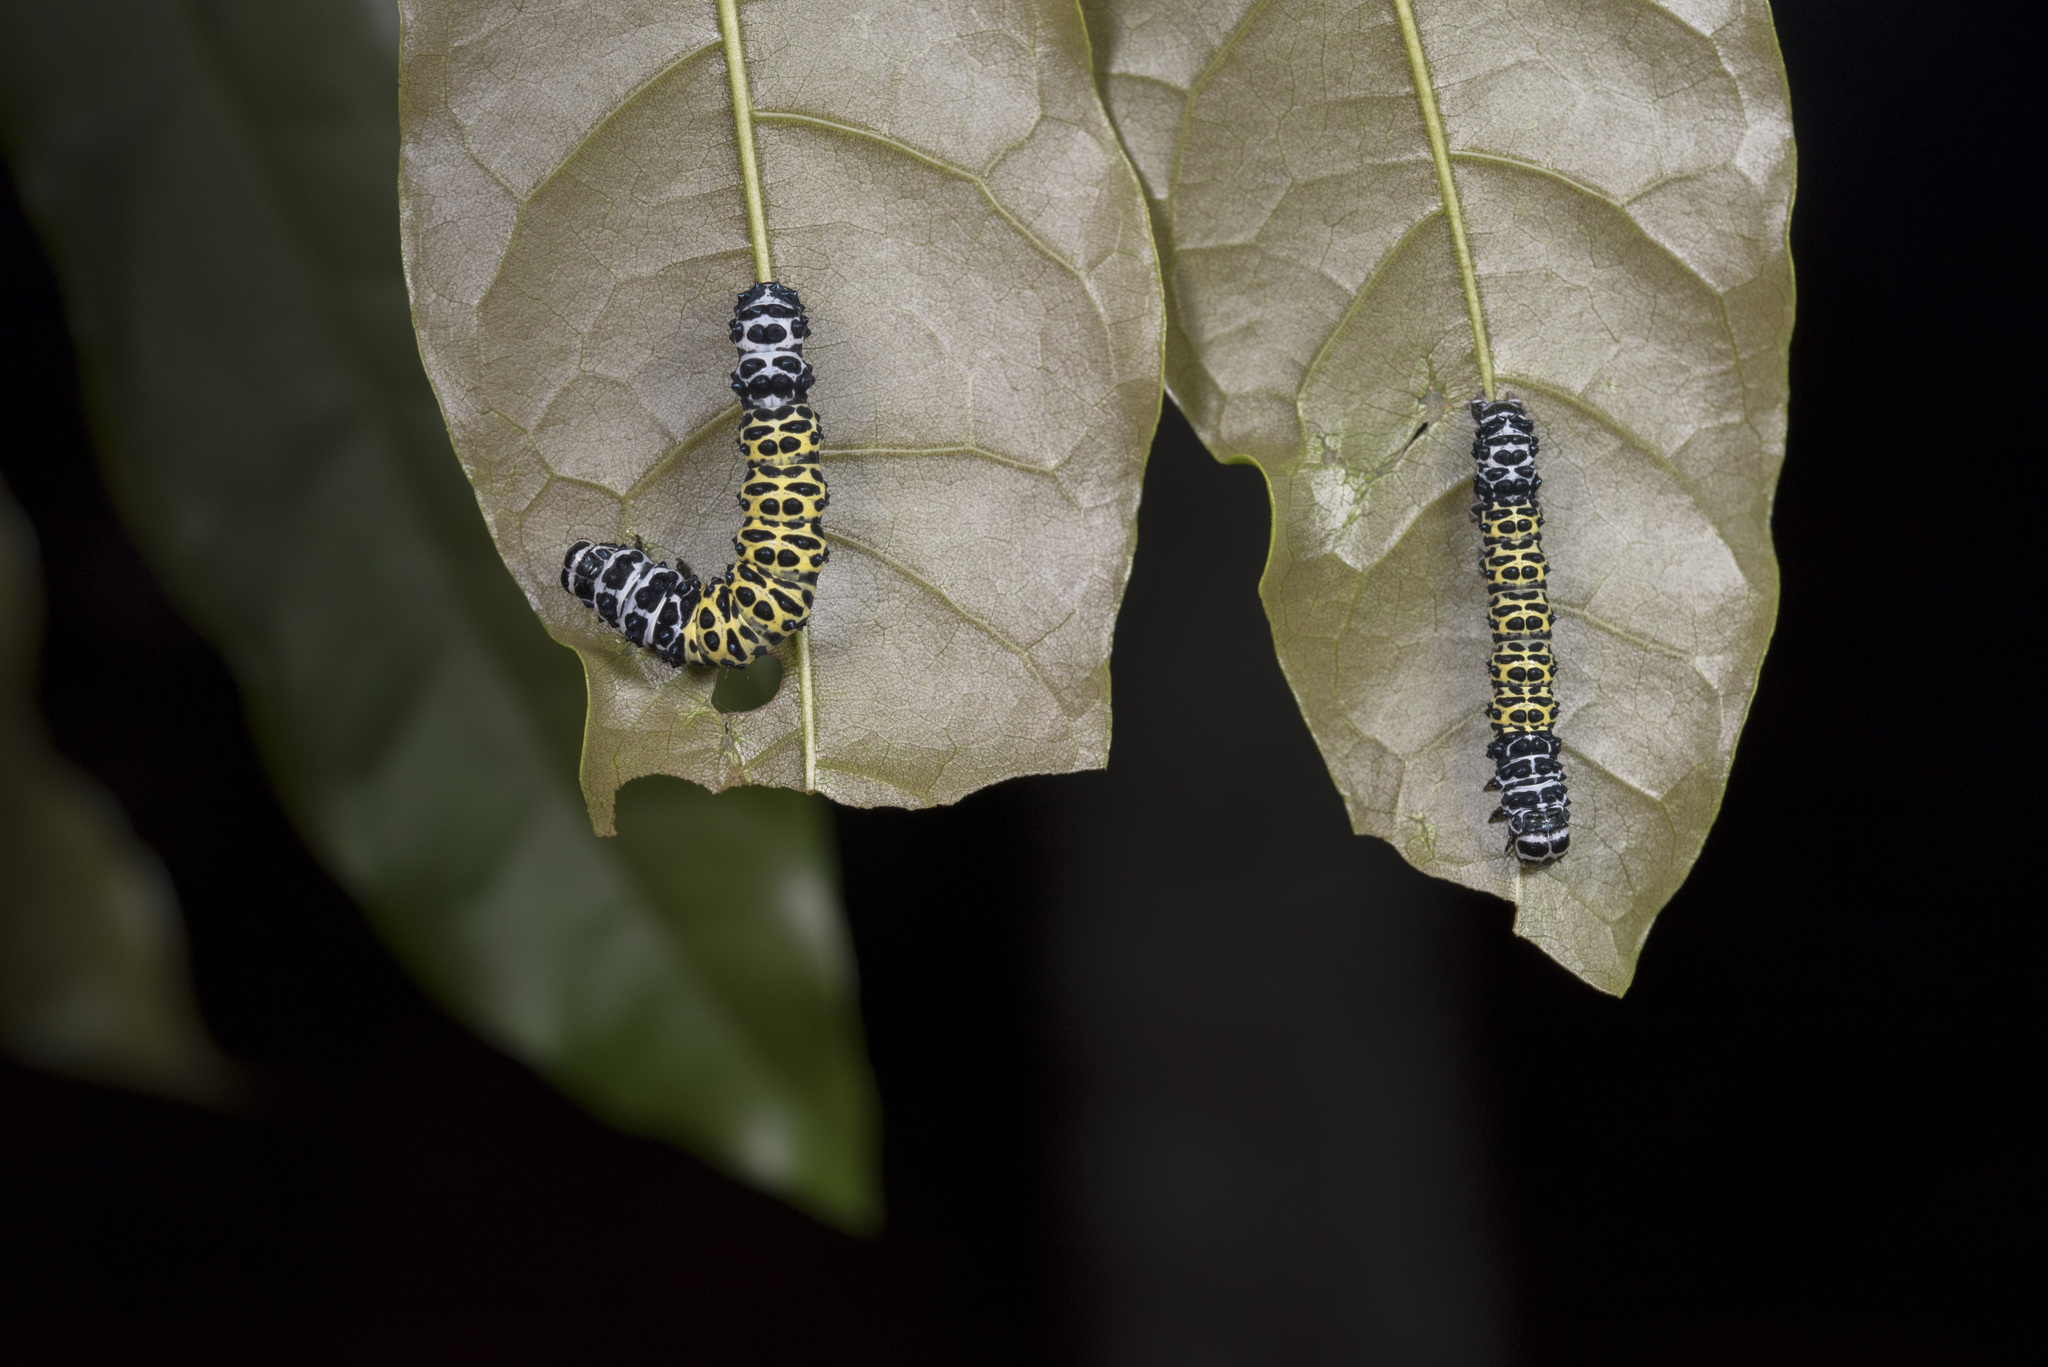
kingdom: Animalia
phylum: Arthropoda
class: Insecta
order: Lepidoptera
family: Noctuidae
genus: Tycracona
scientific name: Tycracona obliqua
